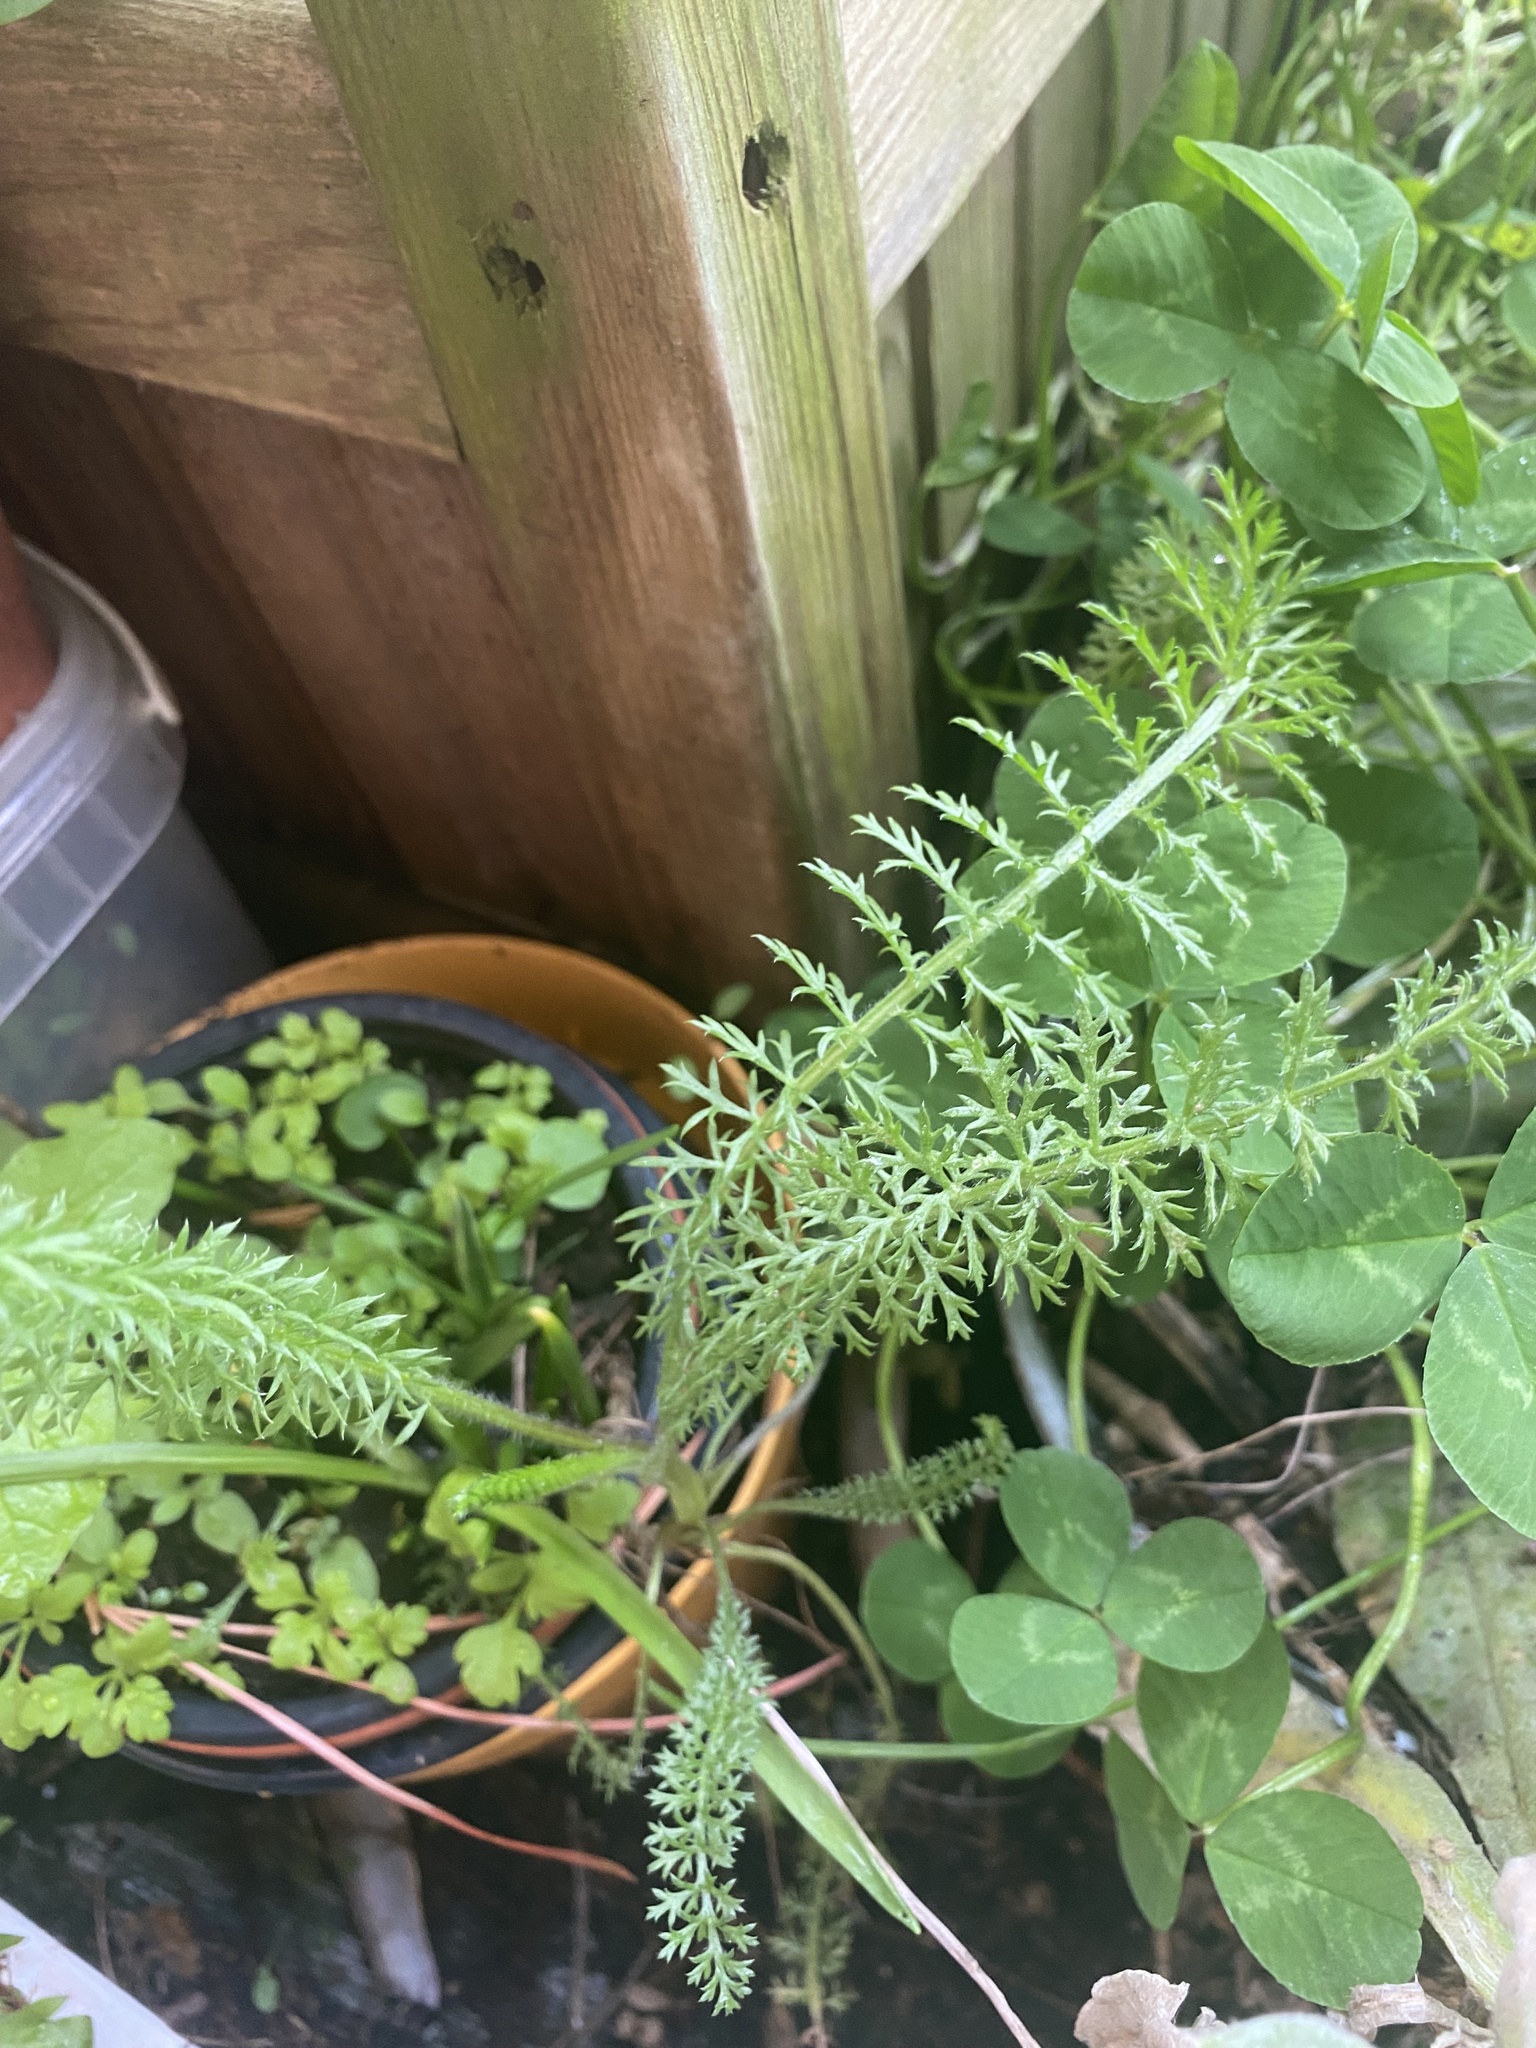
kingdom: Plantae
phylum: Tracheophyta
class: Magnoliopsida
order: Asterales
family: Asteraceae
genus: Achillea
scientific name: Achillea millefolium
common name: Yarrow
